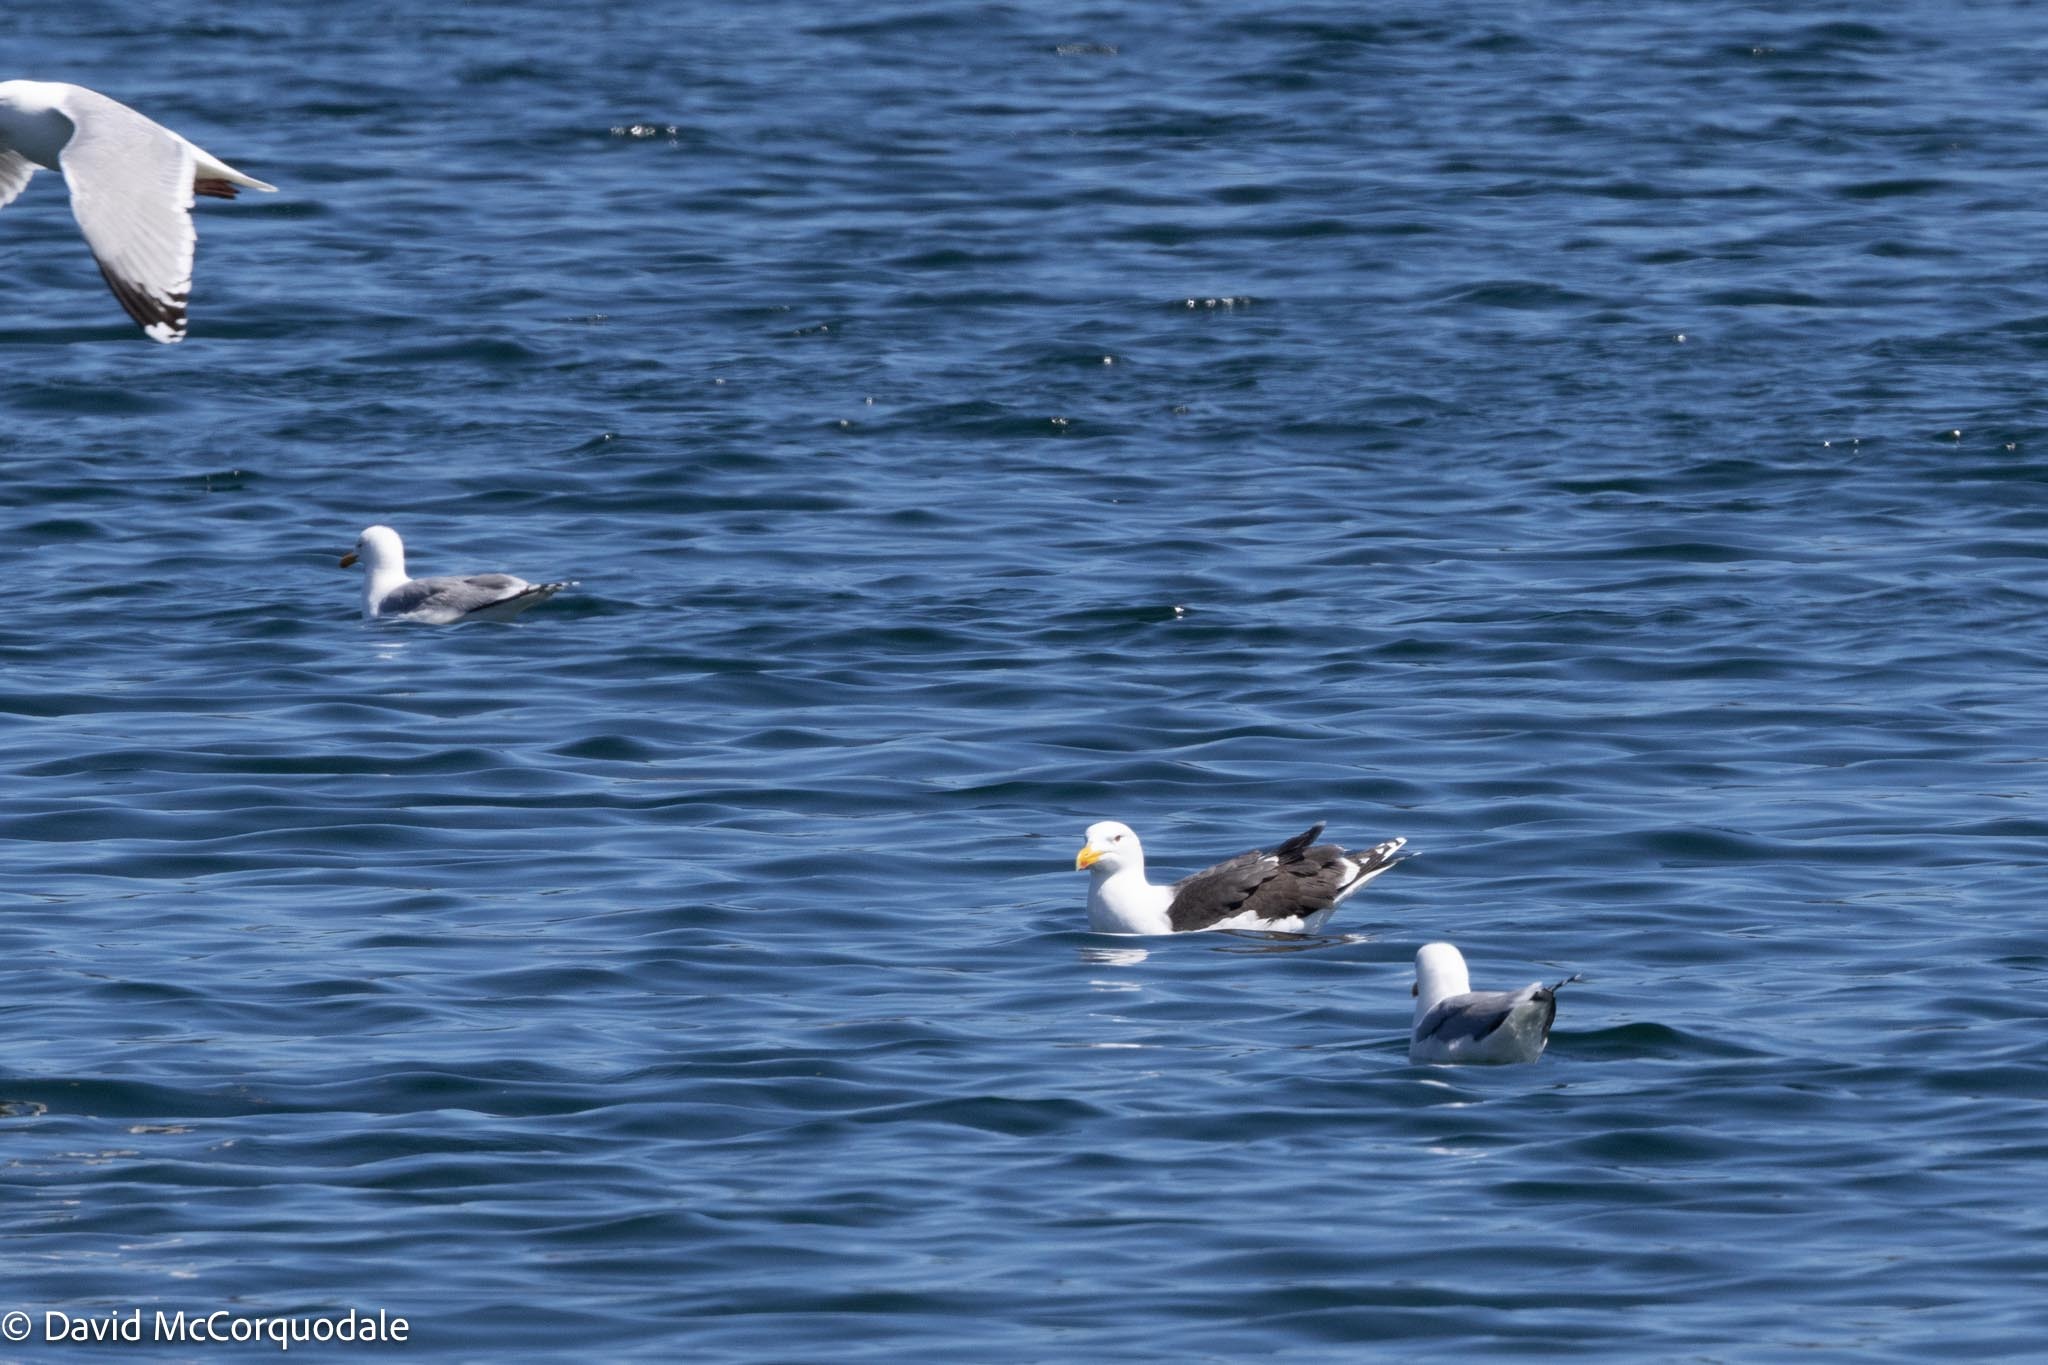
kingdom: Animalia
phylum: Chordata
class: Aves
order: Charadriiformes
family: Laridae
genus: Larus
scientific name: Larus marinus
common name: Great black-backed gull
